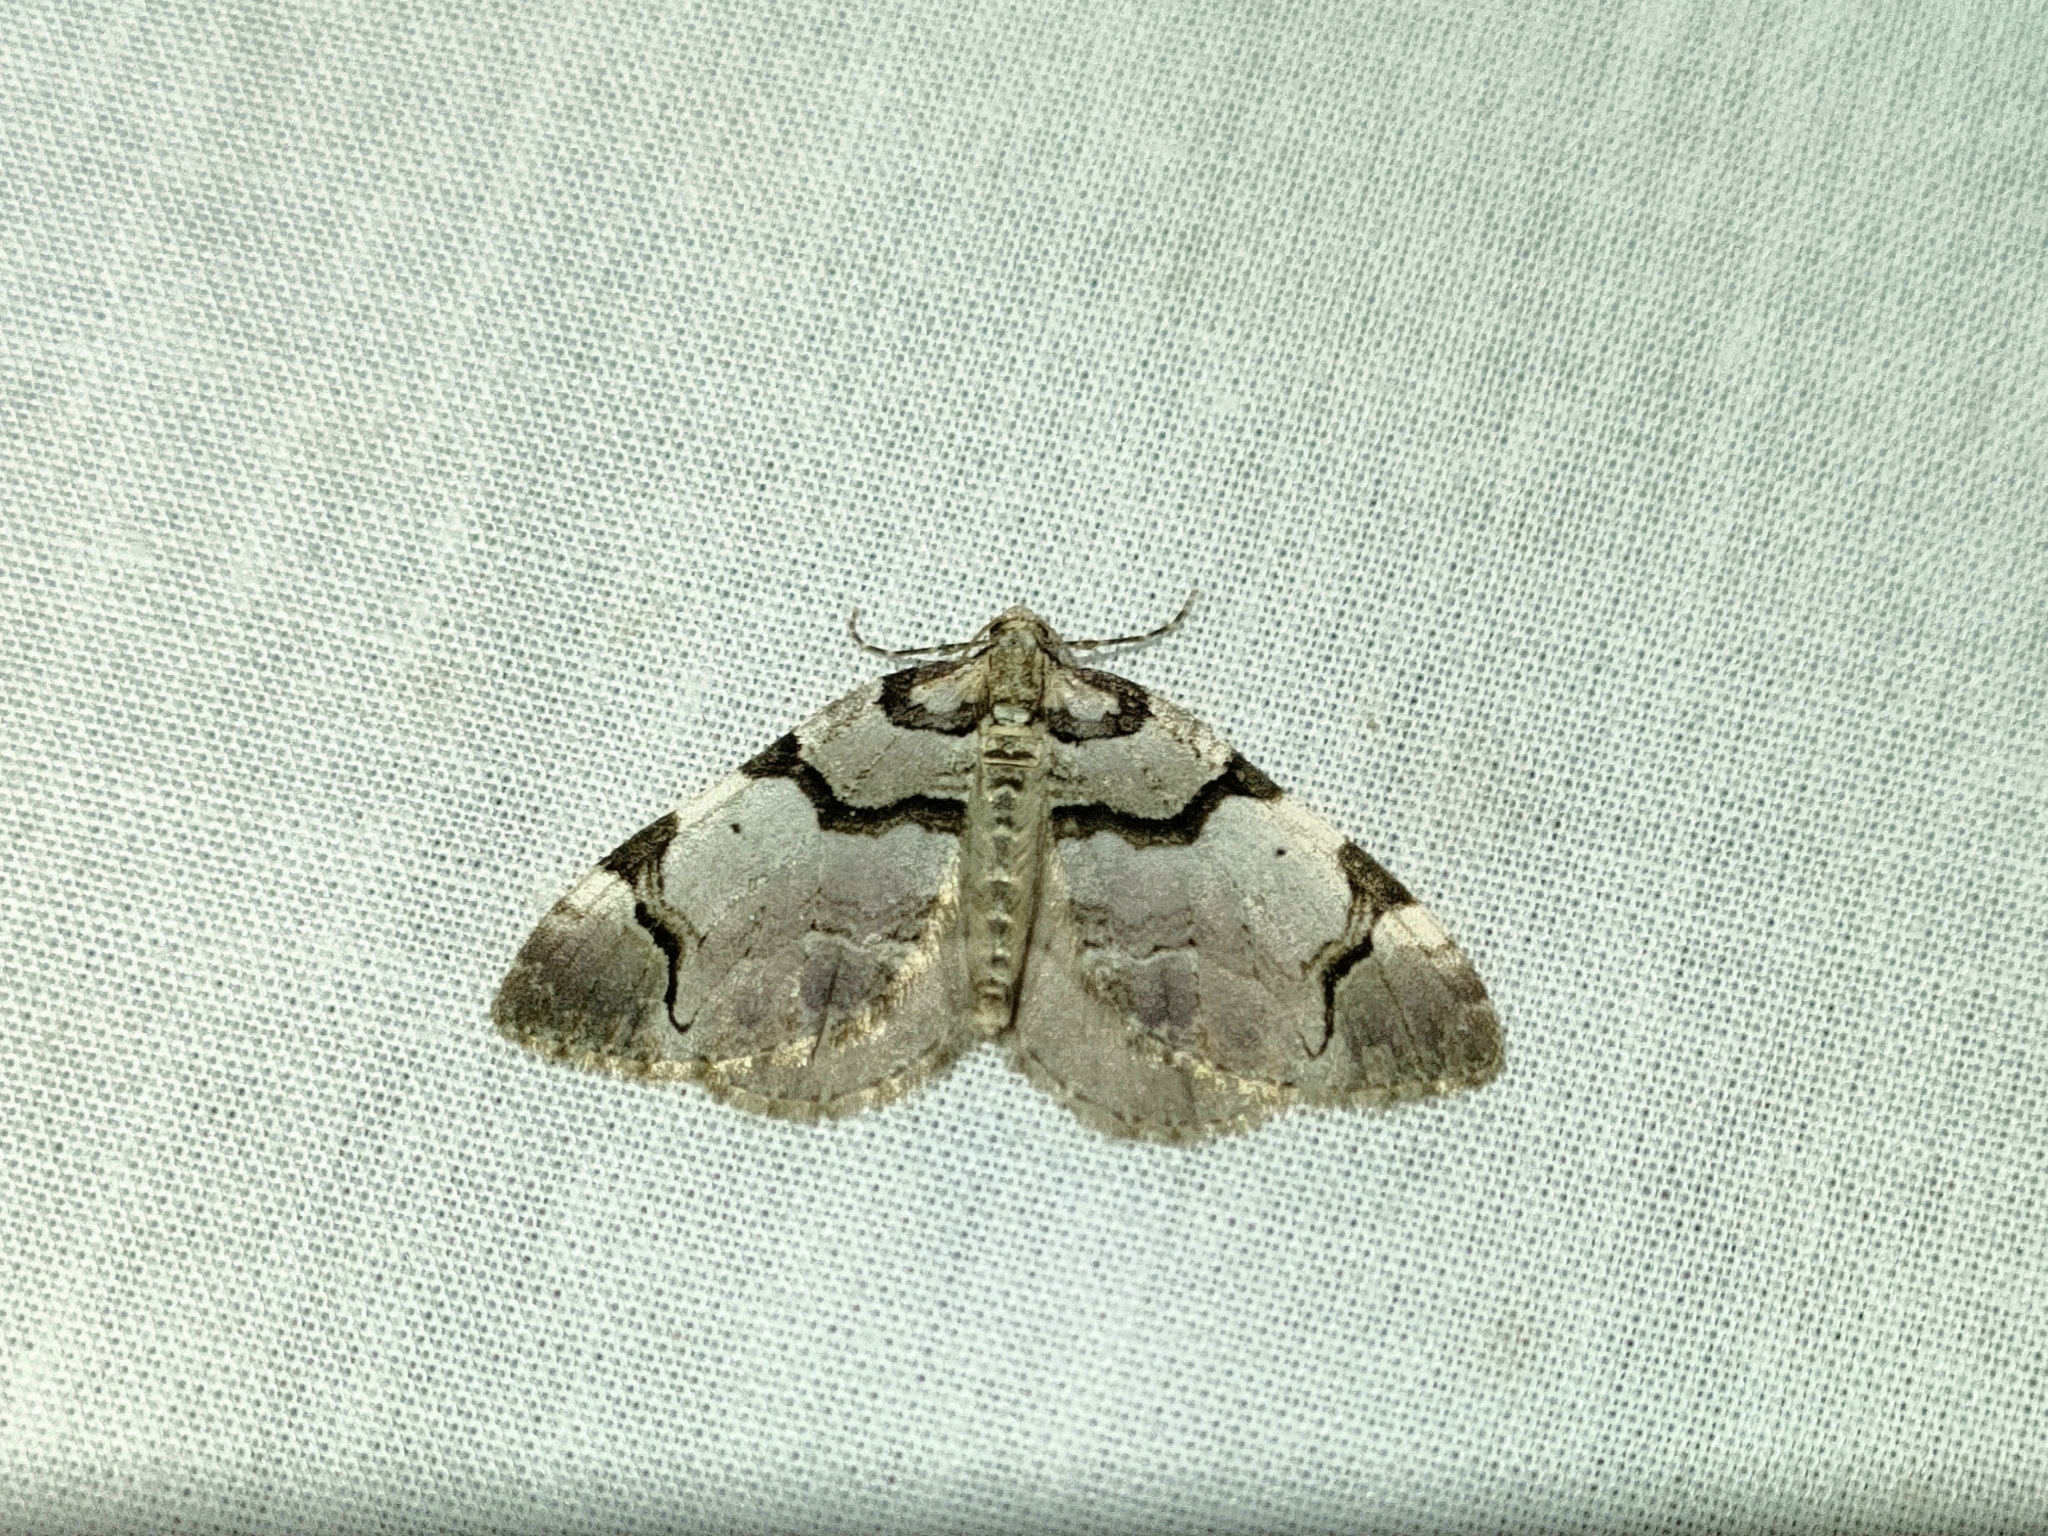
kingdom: Animalia
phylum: Arthropoda
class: Insecta
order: Lepidoptera
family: Geometridae
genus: Anticlea
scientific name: Anticlea derivata
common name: Streamer
